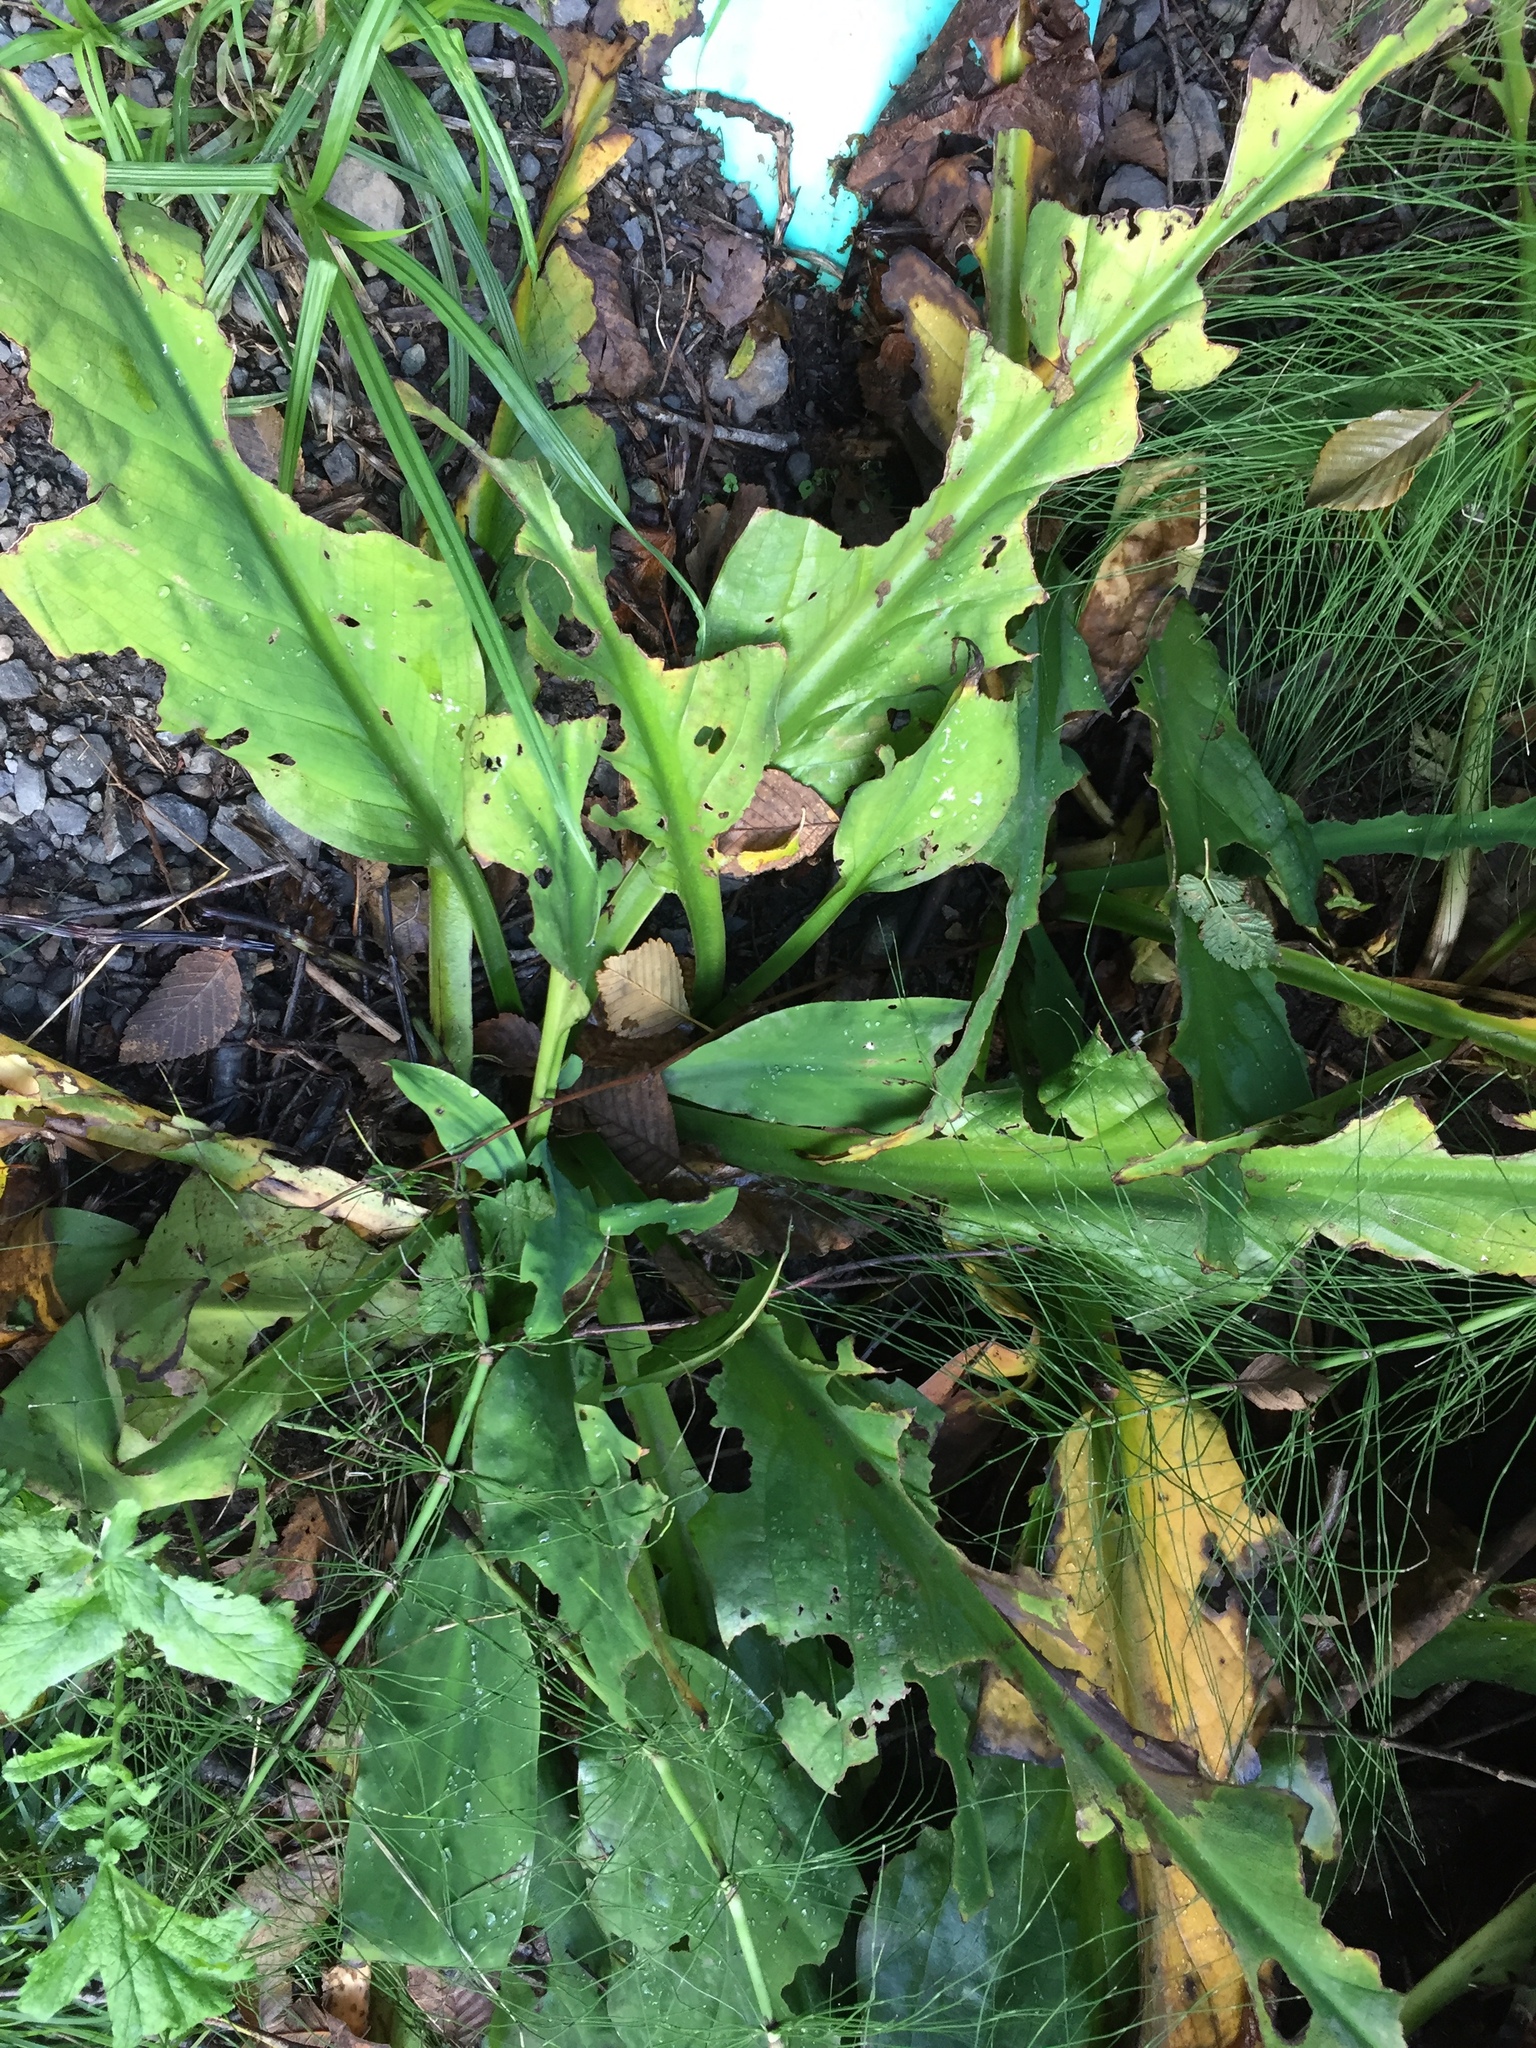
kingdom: Plantae
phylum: Tracheophyta
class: Liliopsida
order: Alismatales
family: Araceae
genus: Lysichiton
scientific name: Lysichiton americanus
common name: American skunk cabbage
